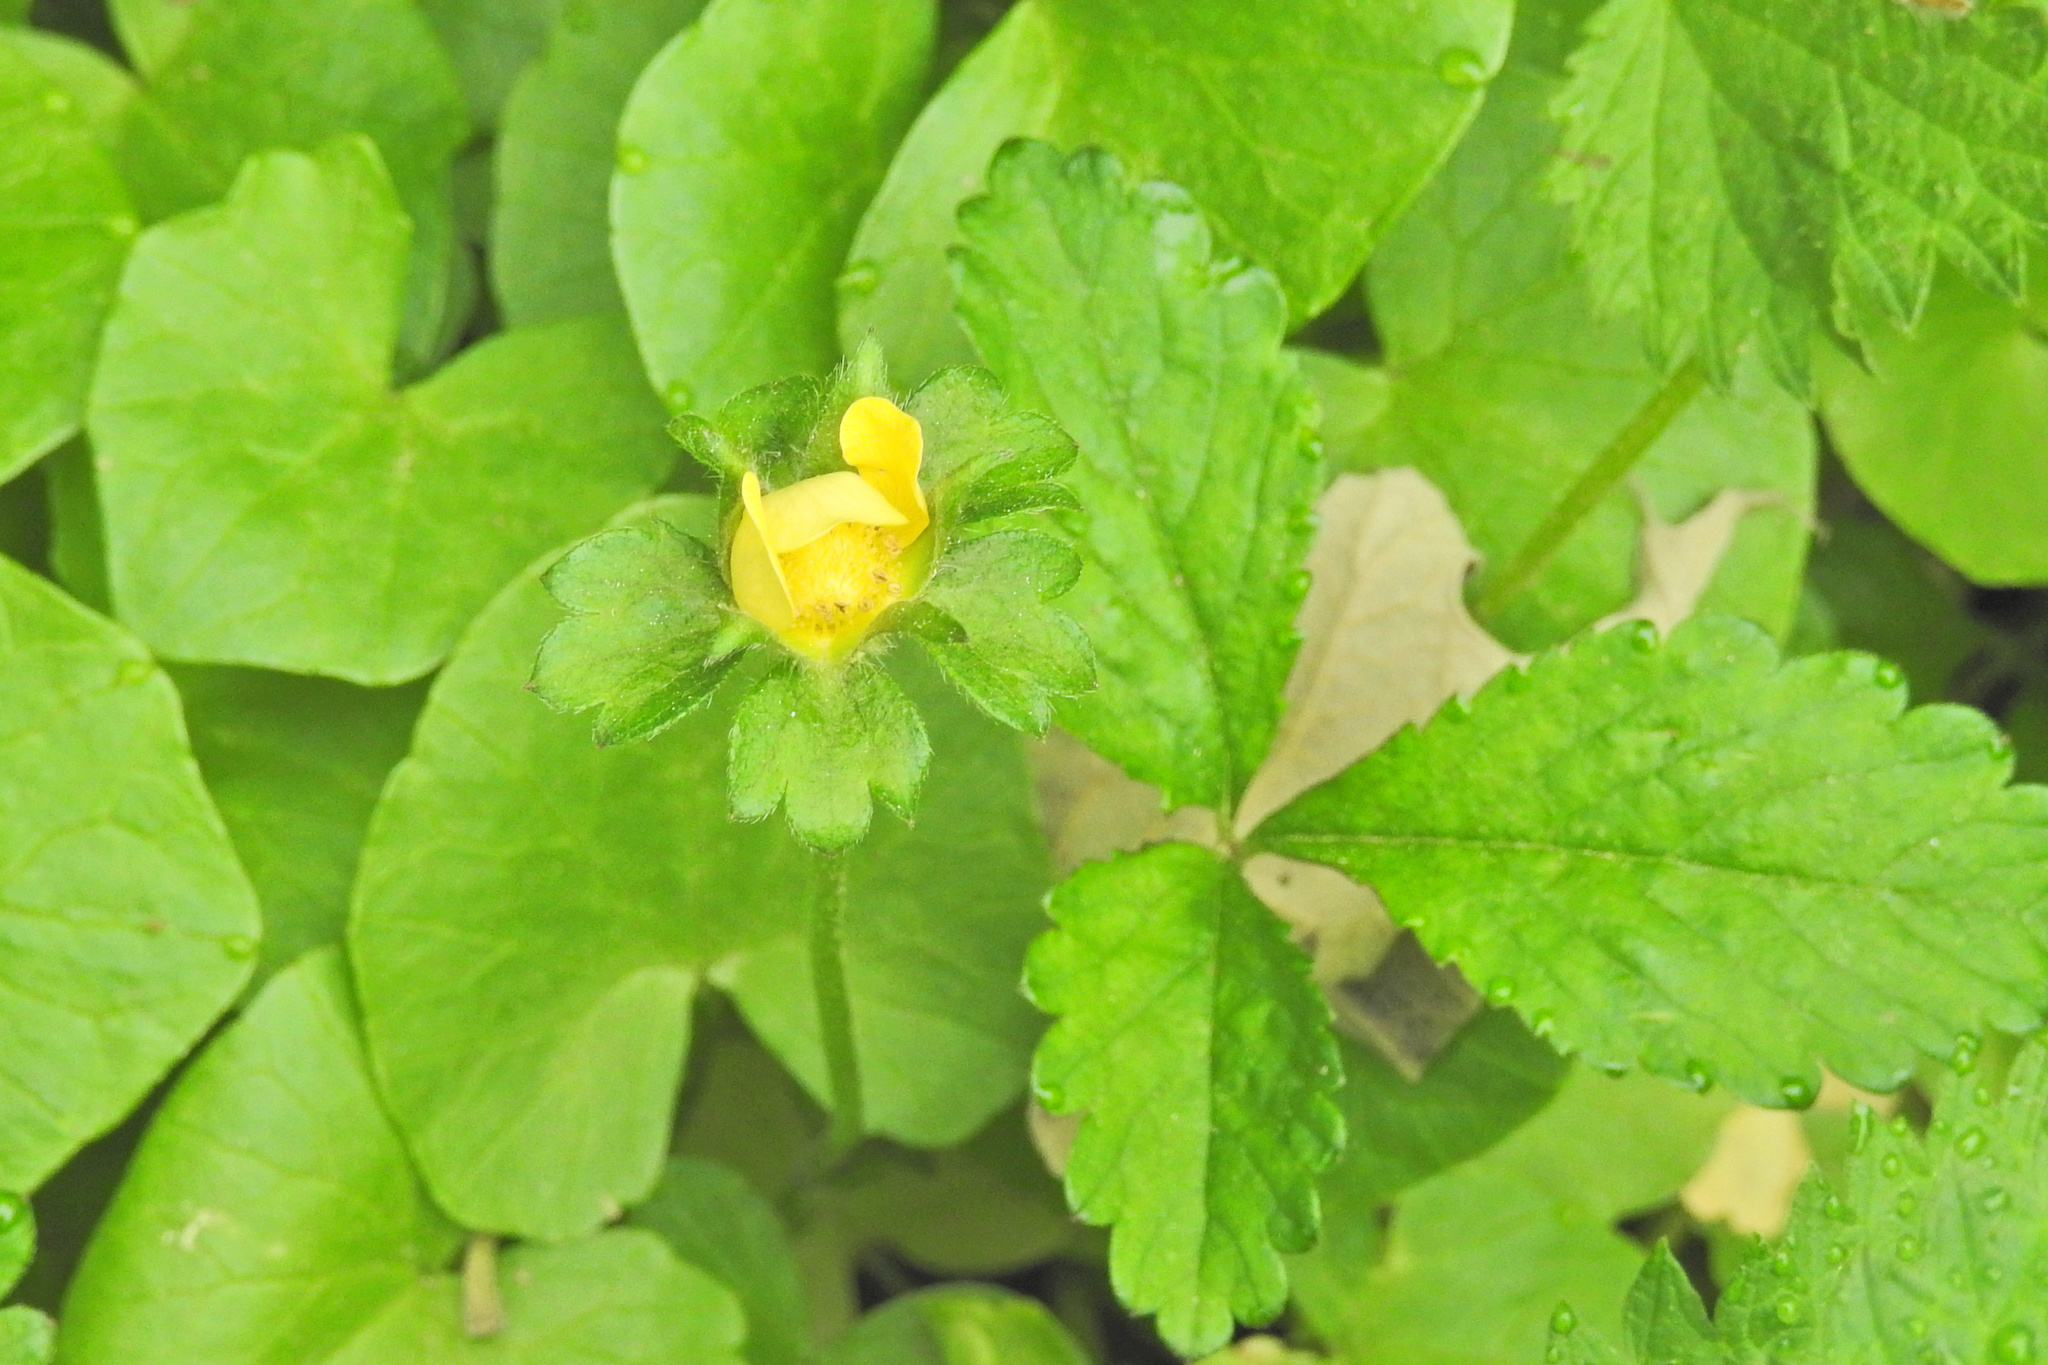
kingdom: Plantae
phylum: Tracheophyta
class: Magnoliopsida
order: Rosales
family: Rosaceae
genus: Potentilla
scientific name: Potentilla indica
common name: Yellow-flowered strawberry
